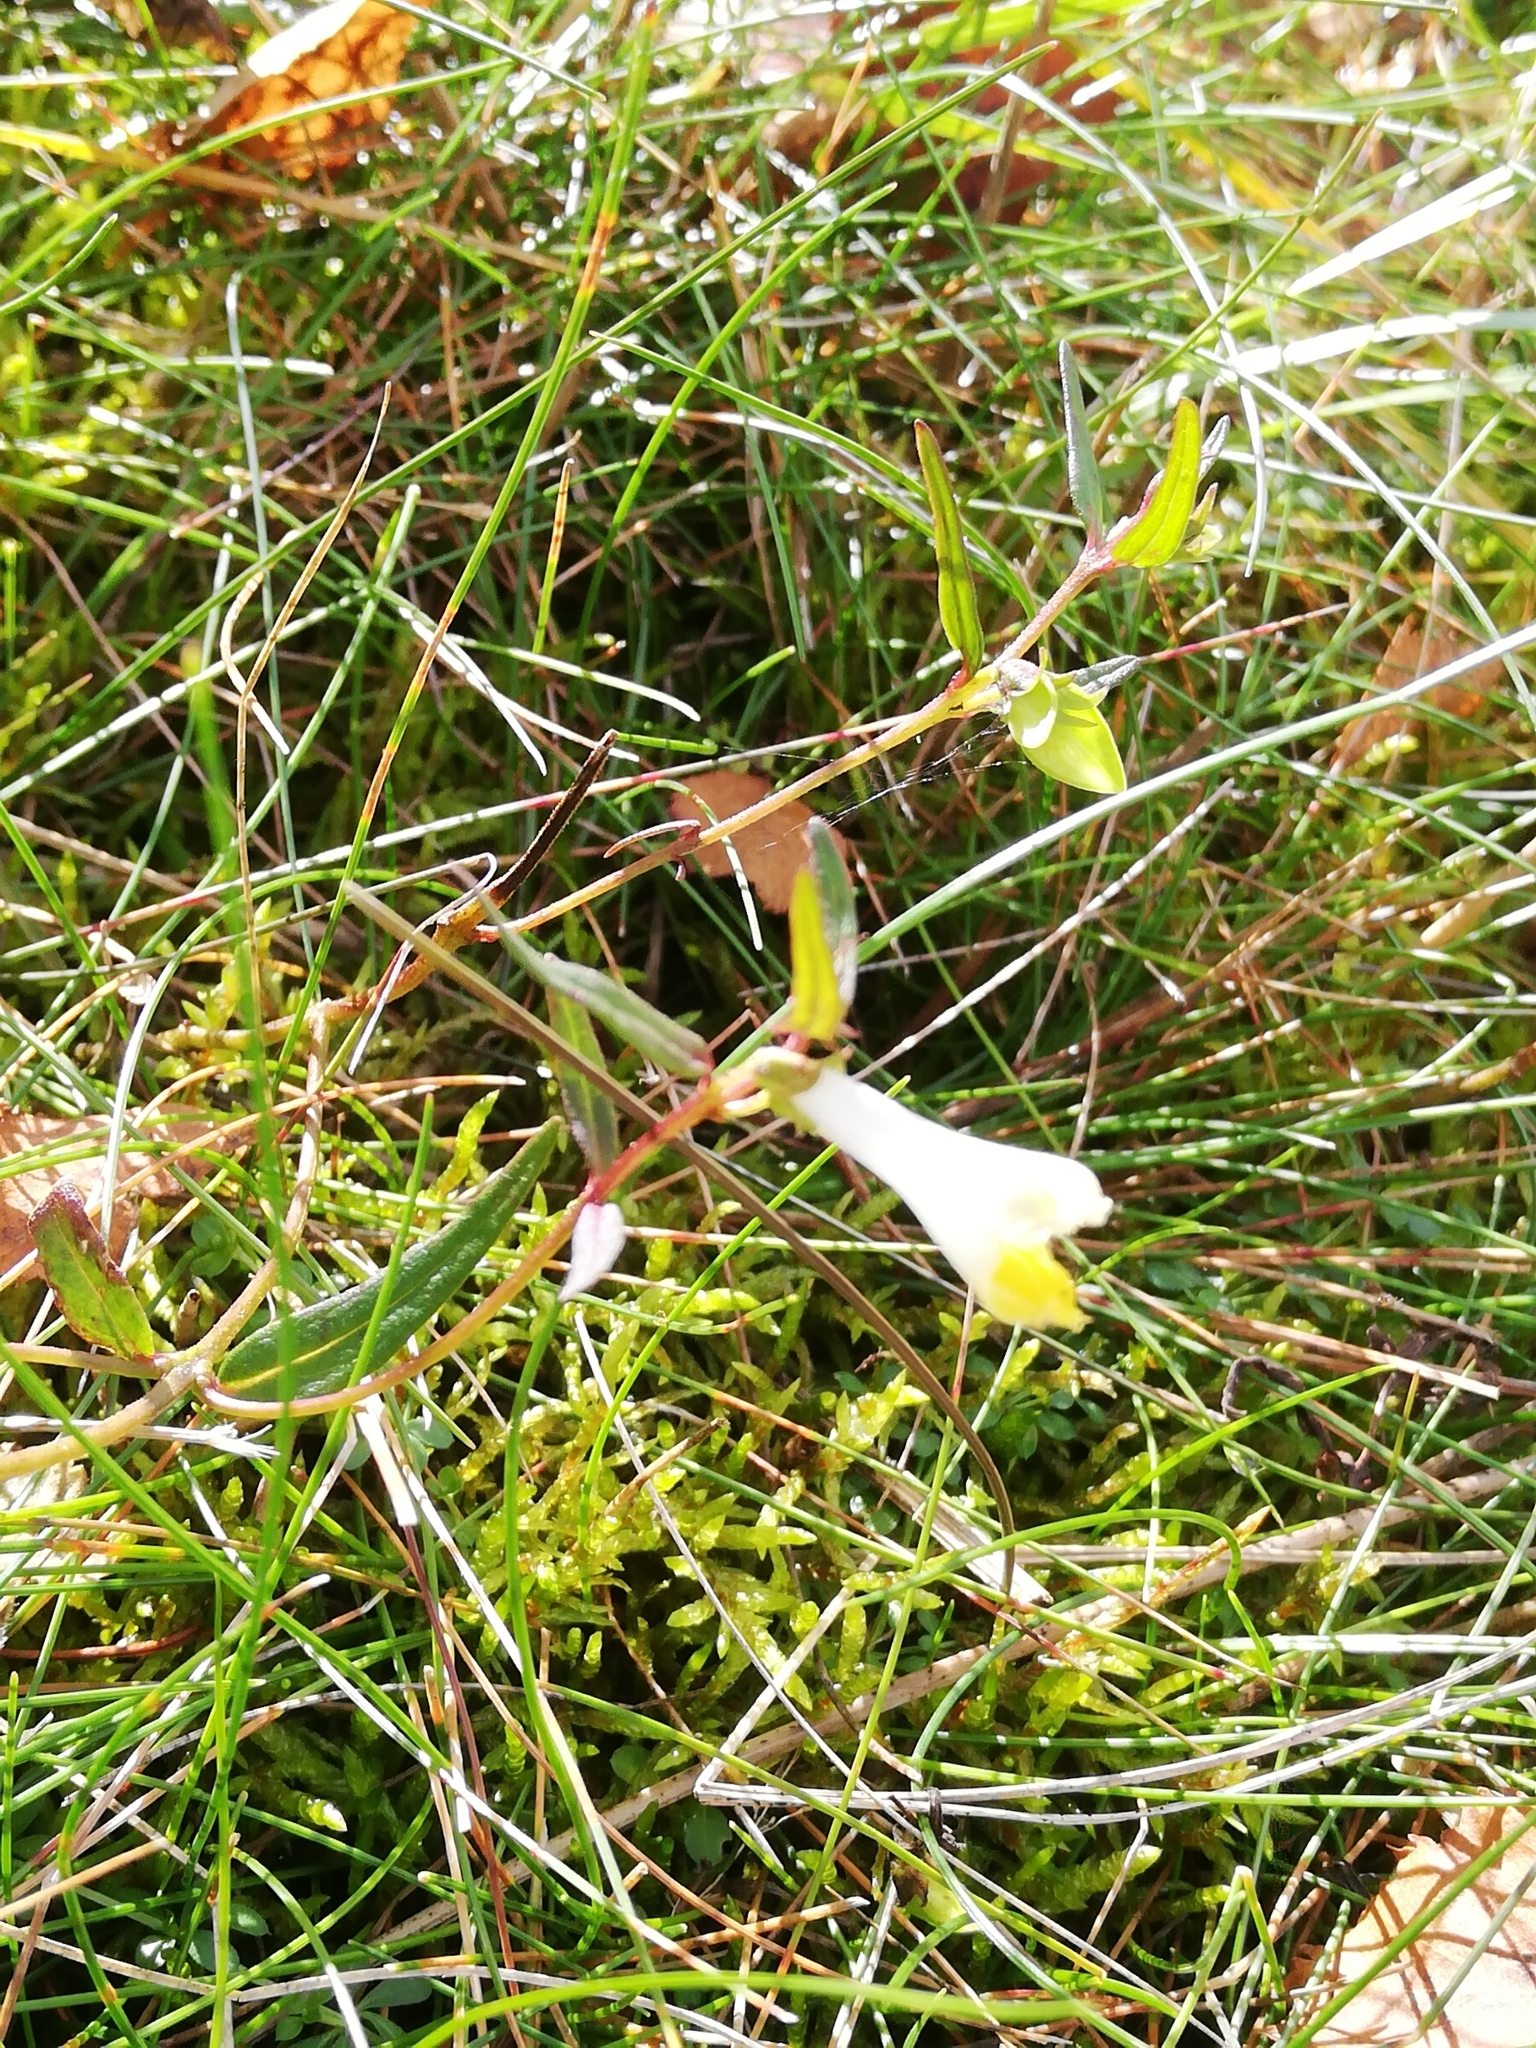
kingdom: Plantae
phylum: Tracheophyta
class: Magnoliopsida
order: Lamiales
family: Orobanchaceae
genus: Melampyrum
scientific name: Melampyrum pratense
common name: Common cow-wheat
